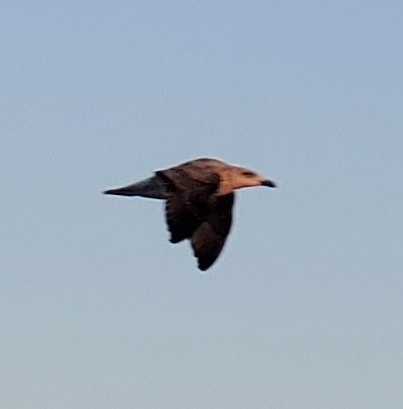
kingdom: Animalia
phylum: Chordata
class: Aves
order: Charadriiformes
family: Laridae
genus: Larus
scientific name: Larus marinus
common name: Great black-backed gull
